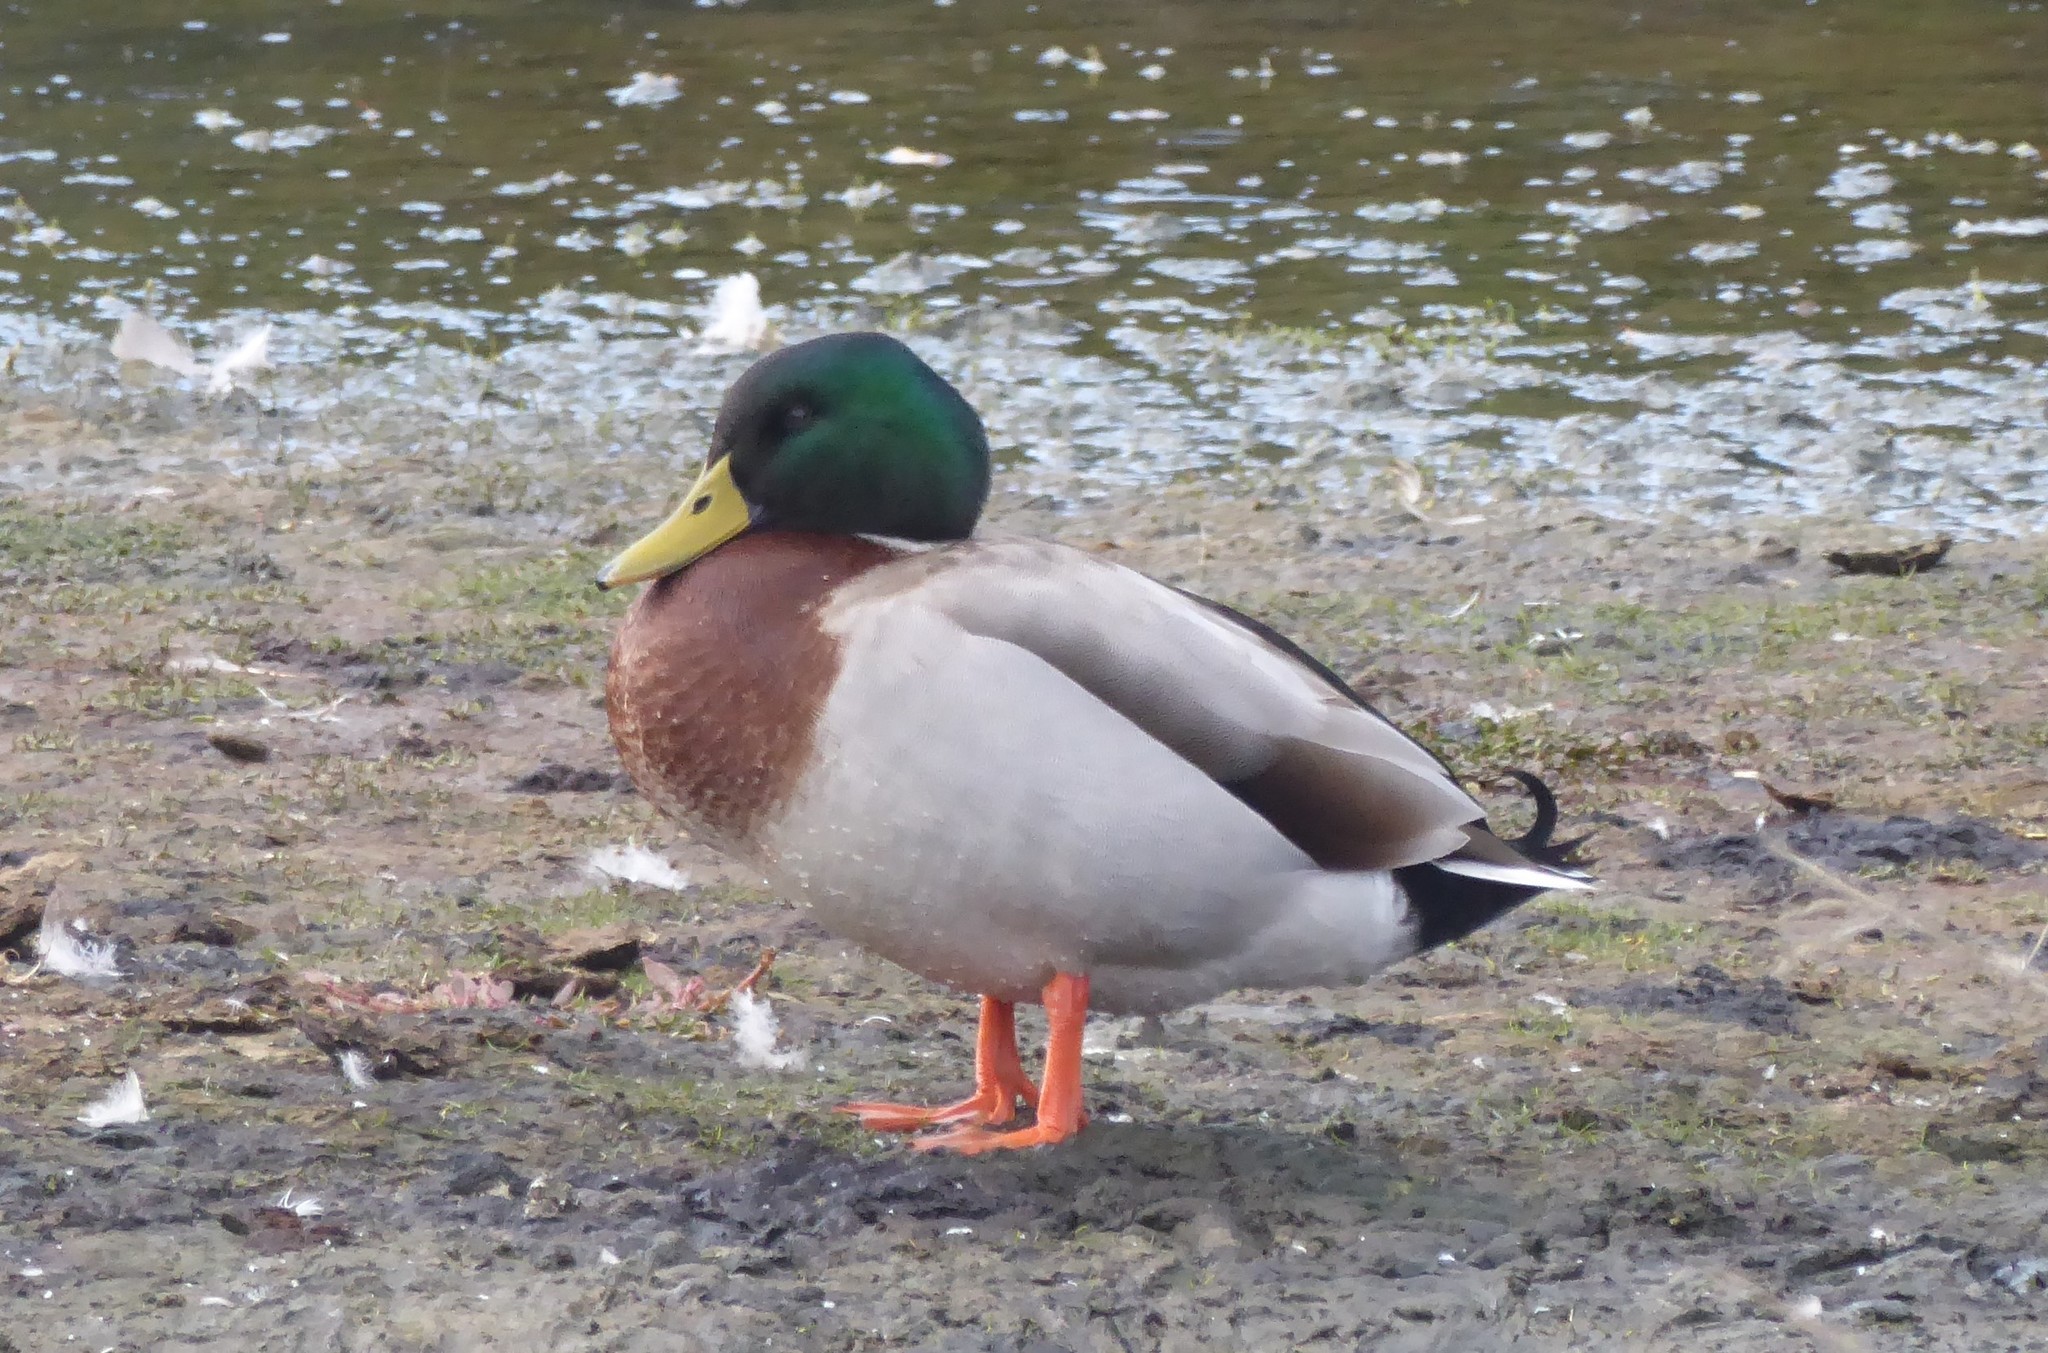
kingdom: Animalia
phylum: Chordata
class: Aves
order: Anseriformes
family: Anatidae
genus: Anas
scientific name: Anas platyrhynchos
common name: Mallard
